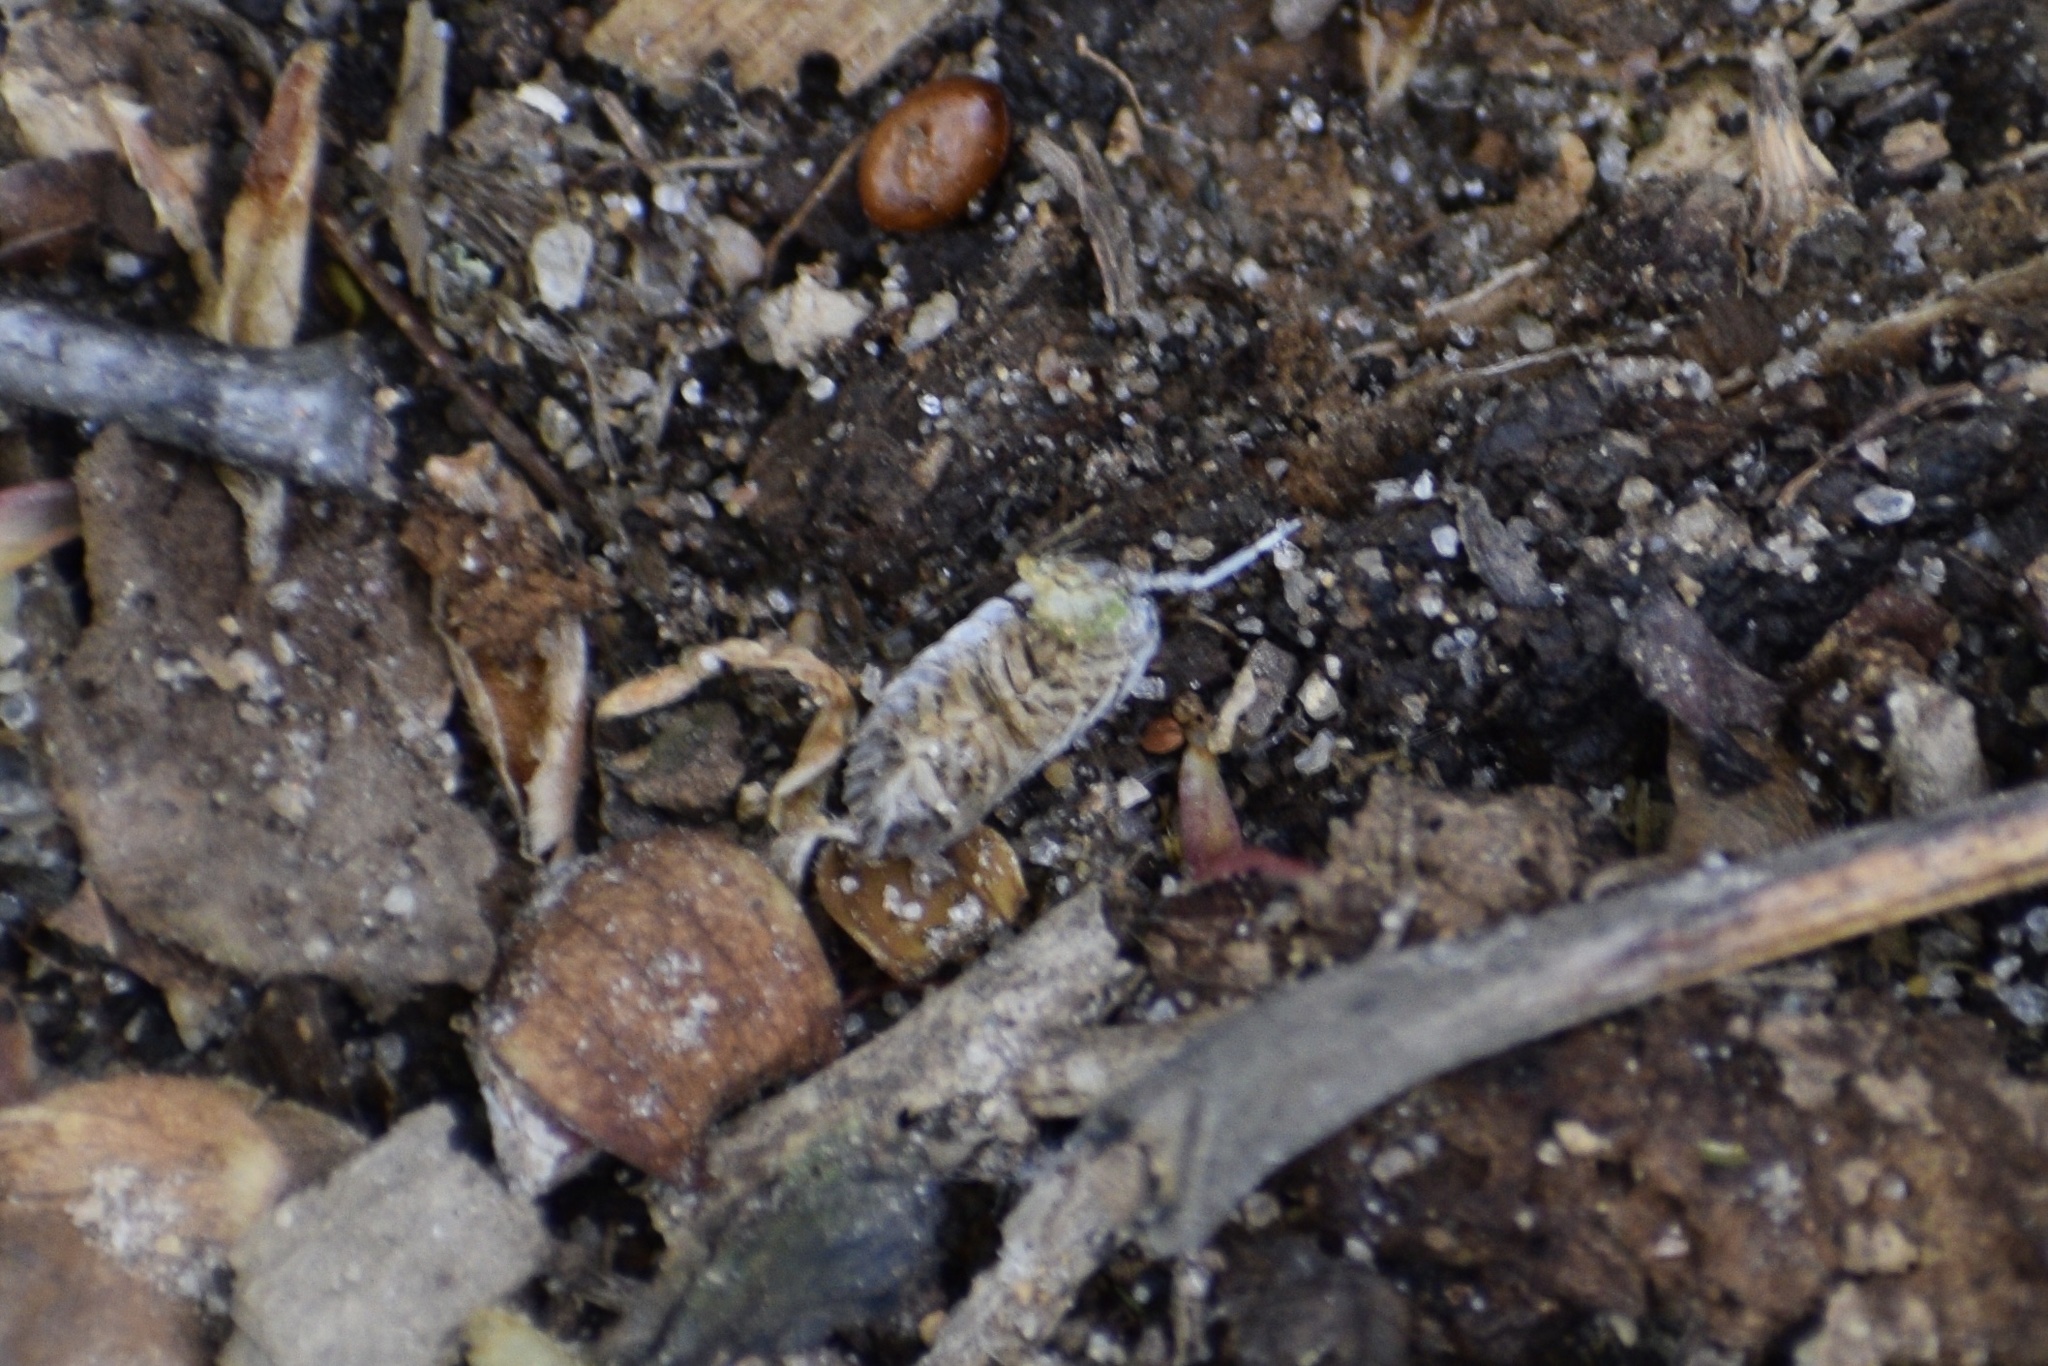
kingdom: Animalia
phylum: Arthropoda
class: Malacostraca
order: Isopoda
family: Porcellionidae
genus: Porcellio
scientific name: Porcellio scaber
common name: Common rough woodlouse
